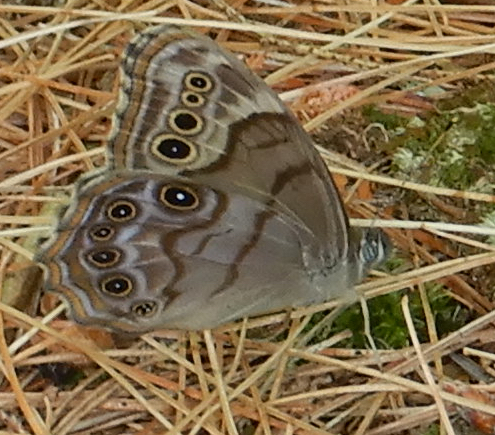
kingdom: Animalia
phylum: Arthropoda
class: Insecta
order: Lepidoptera
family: Nymphalidae
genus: Lethe
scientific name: Lethe anthedon
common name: Northern pearly-eye
